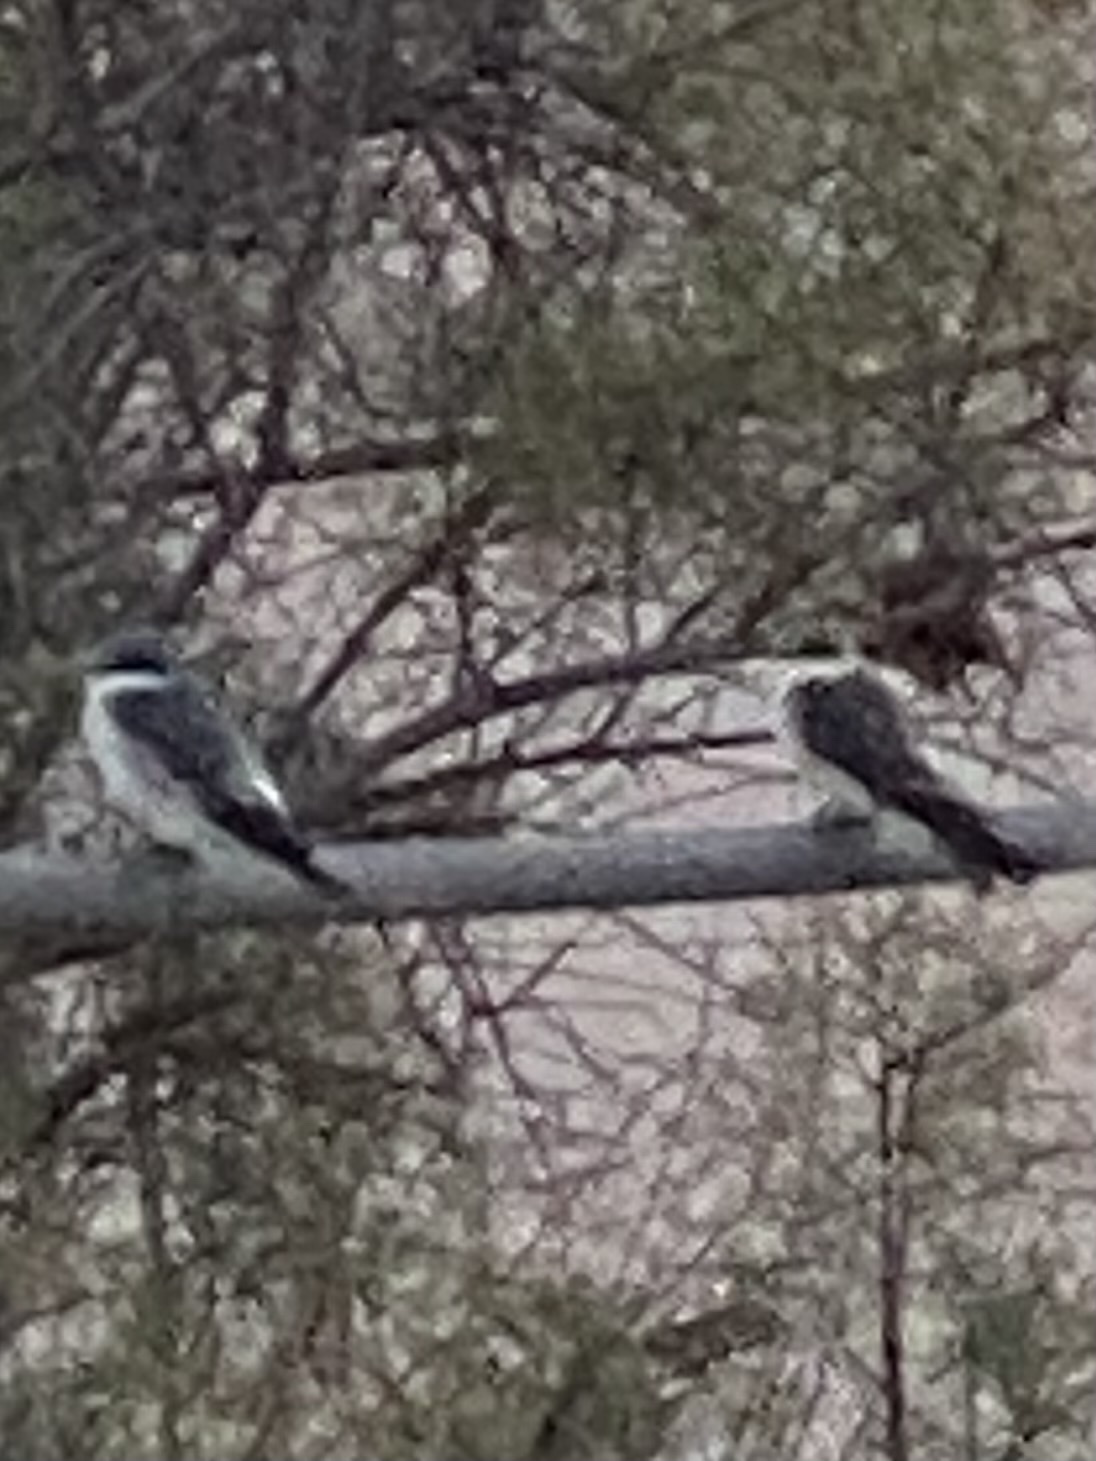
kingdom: Animalia
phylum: Chordata
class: Aves
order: Passeriformes
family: Hirundinidae
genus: Tachycineta
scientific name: Tachycineta albilinea
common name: Mangrove swallow
